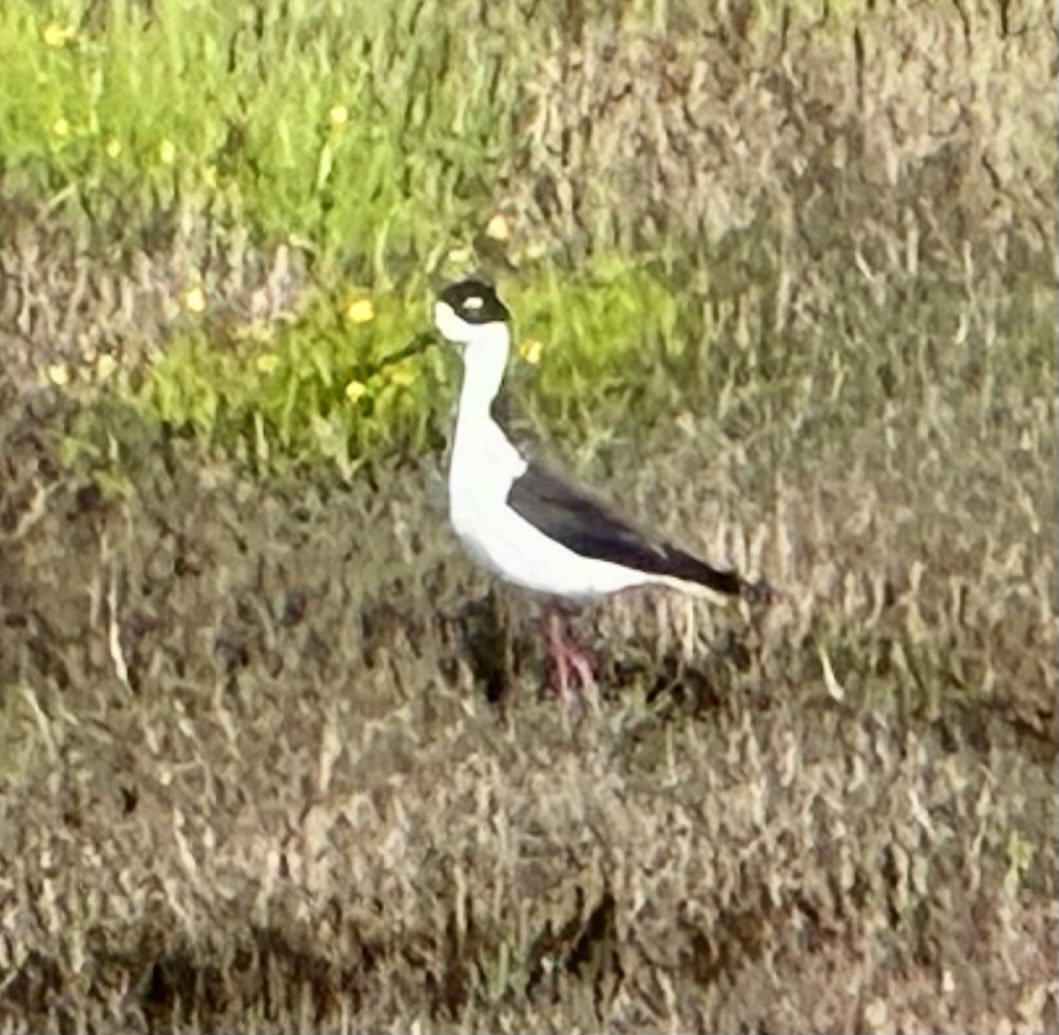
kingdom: Animalia
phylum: Chordata
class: Aves
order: Charadriiformes
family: Recurvirostridae
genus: Himantopus
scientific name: Himantopus mexicanus
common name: Black-necked stilt
